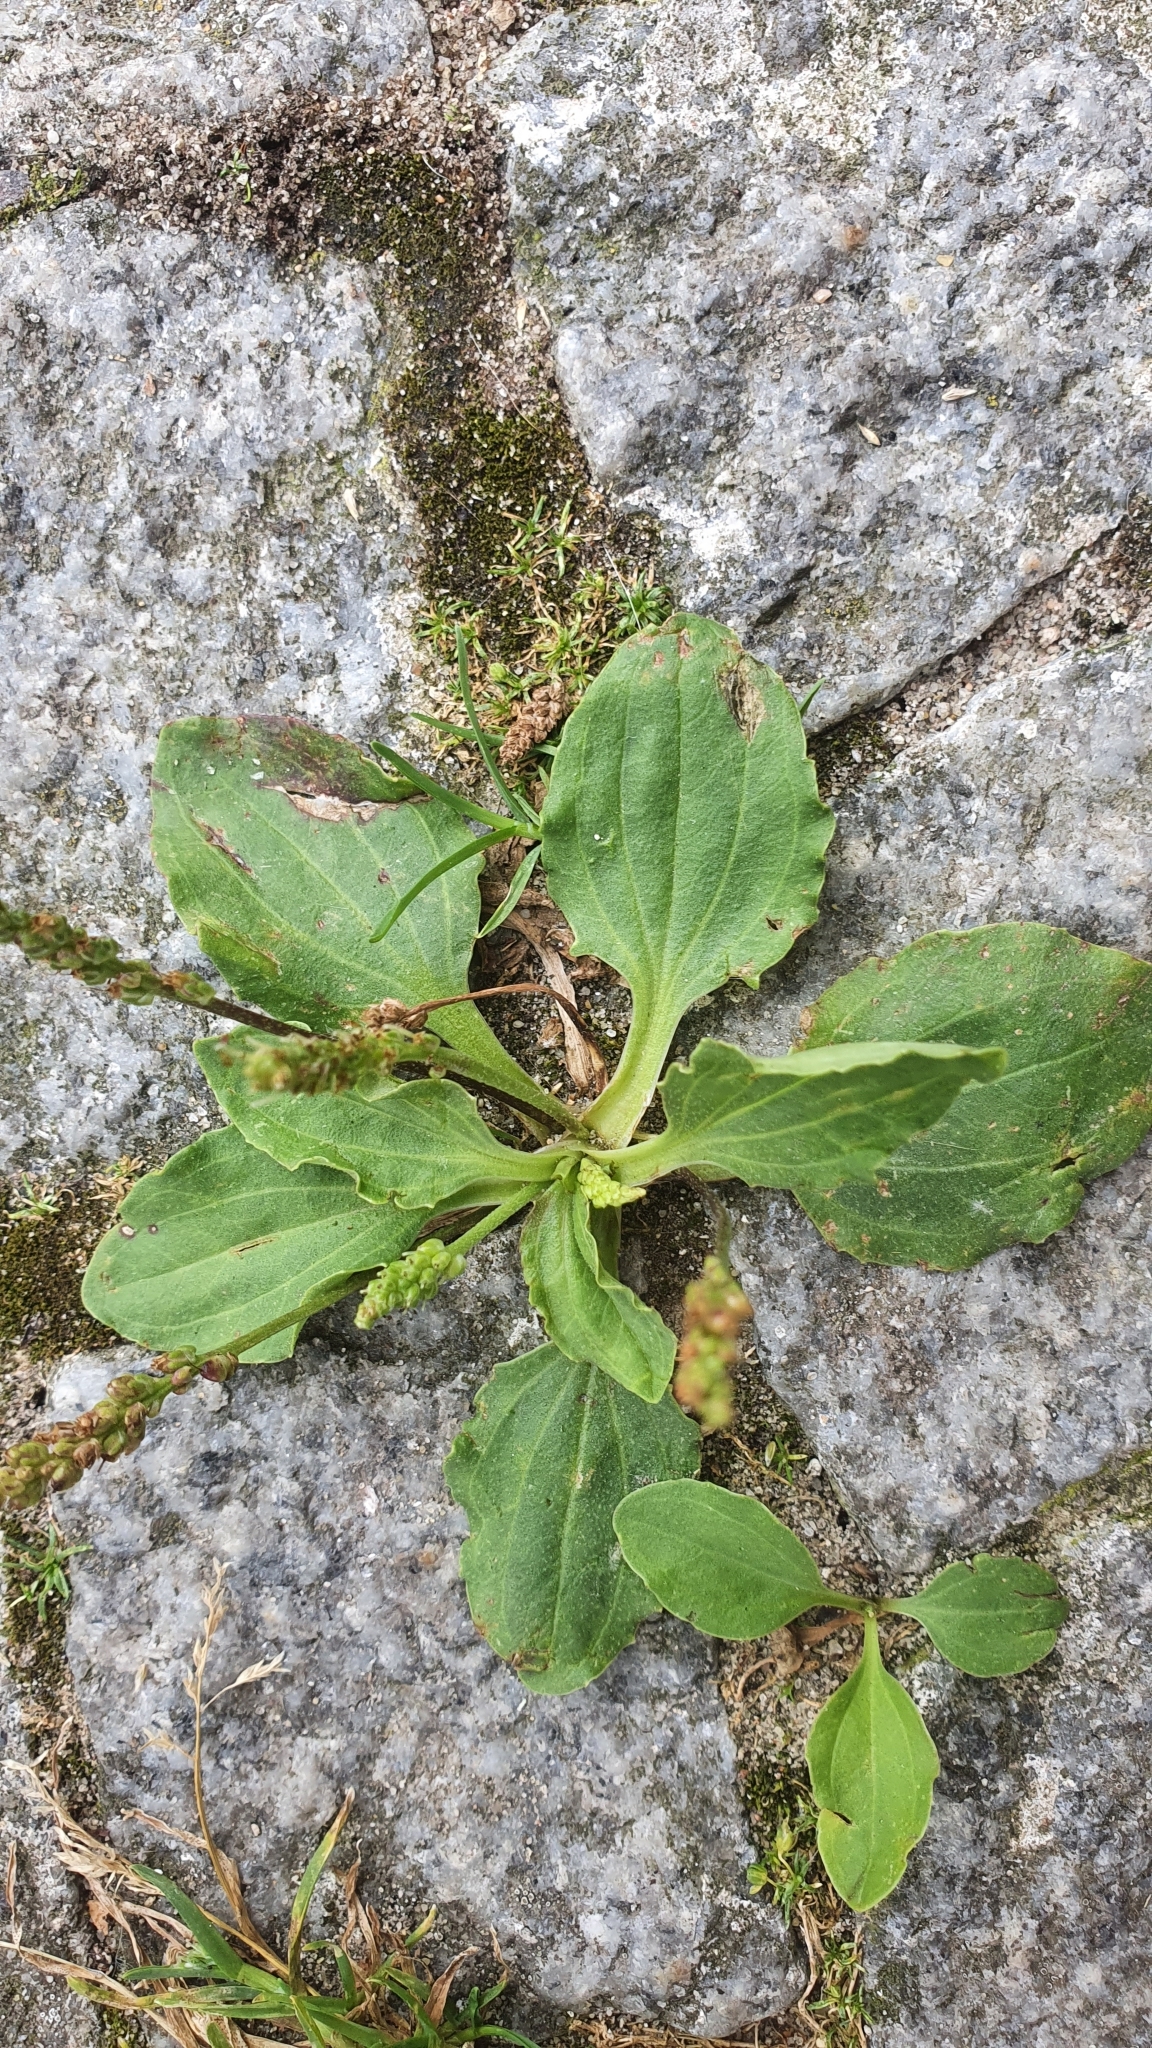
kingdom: Plantae
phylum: Tracheophyta
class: Magnoliopsida
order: Lamiales
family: Plantaginaceae
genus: Plantago
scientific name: Plantago major
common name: Common plantain
